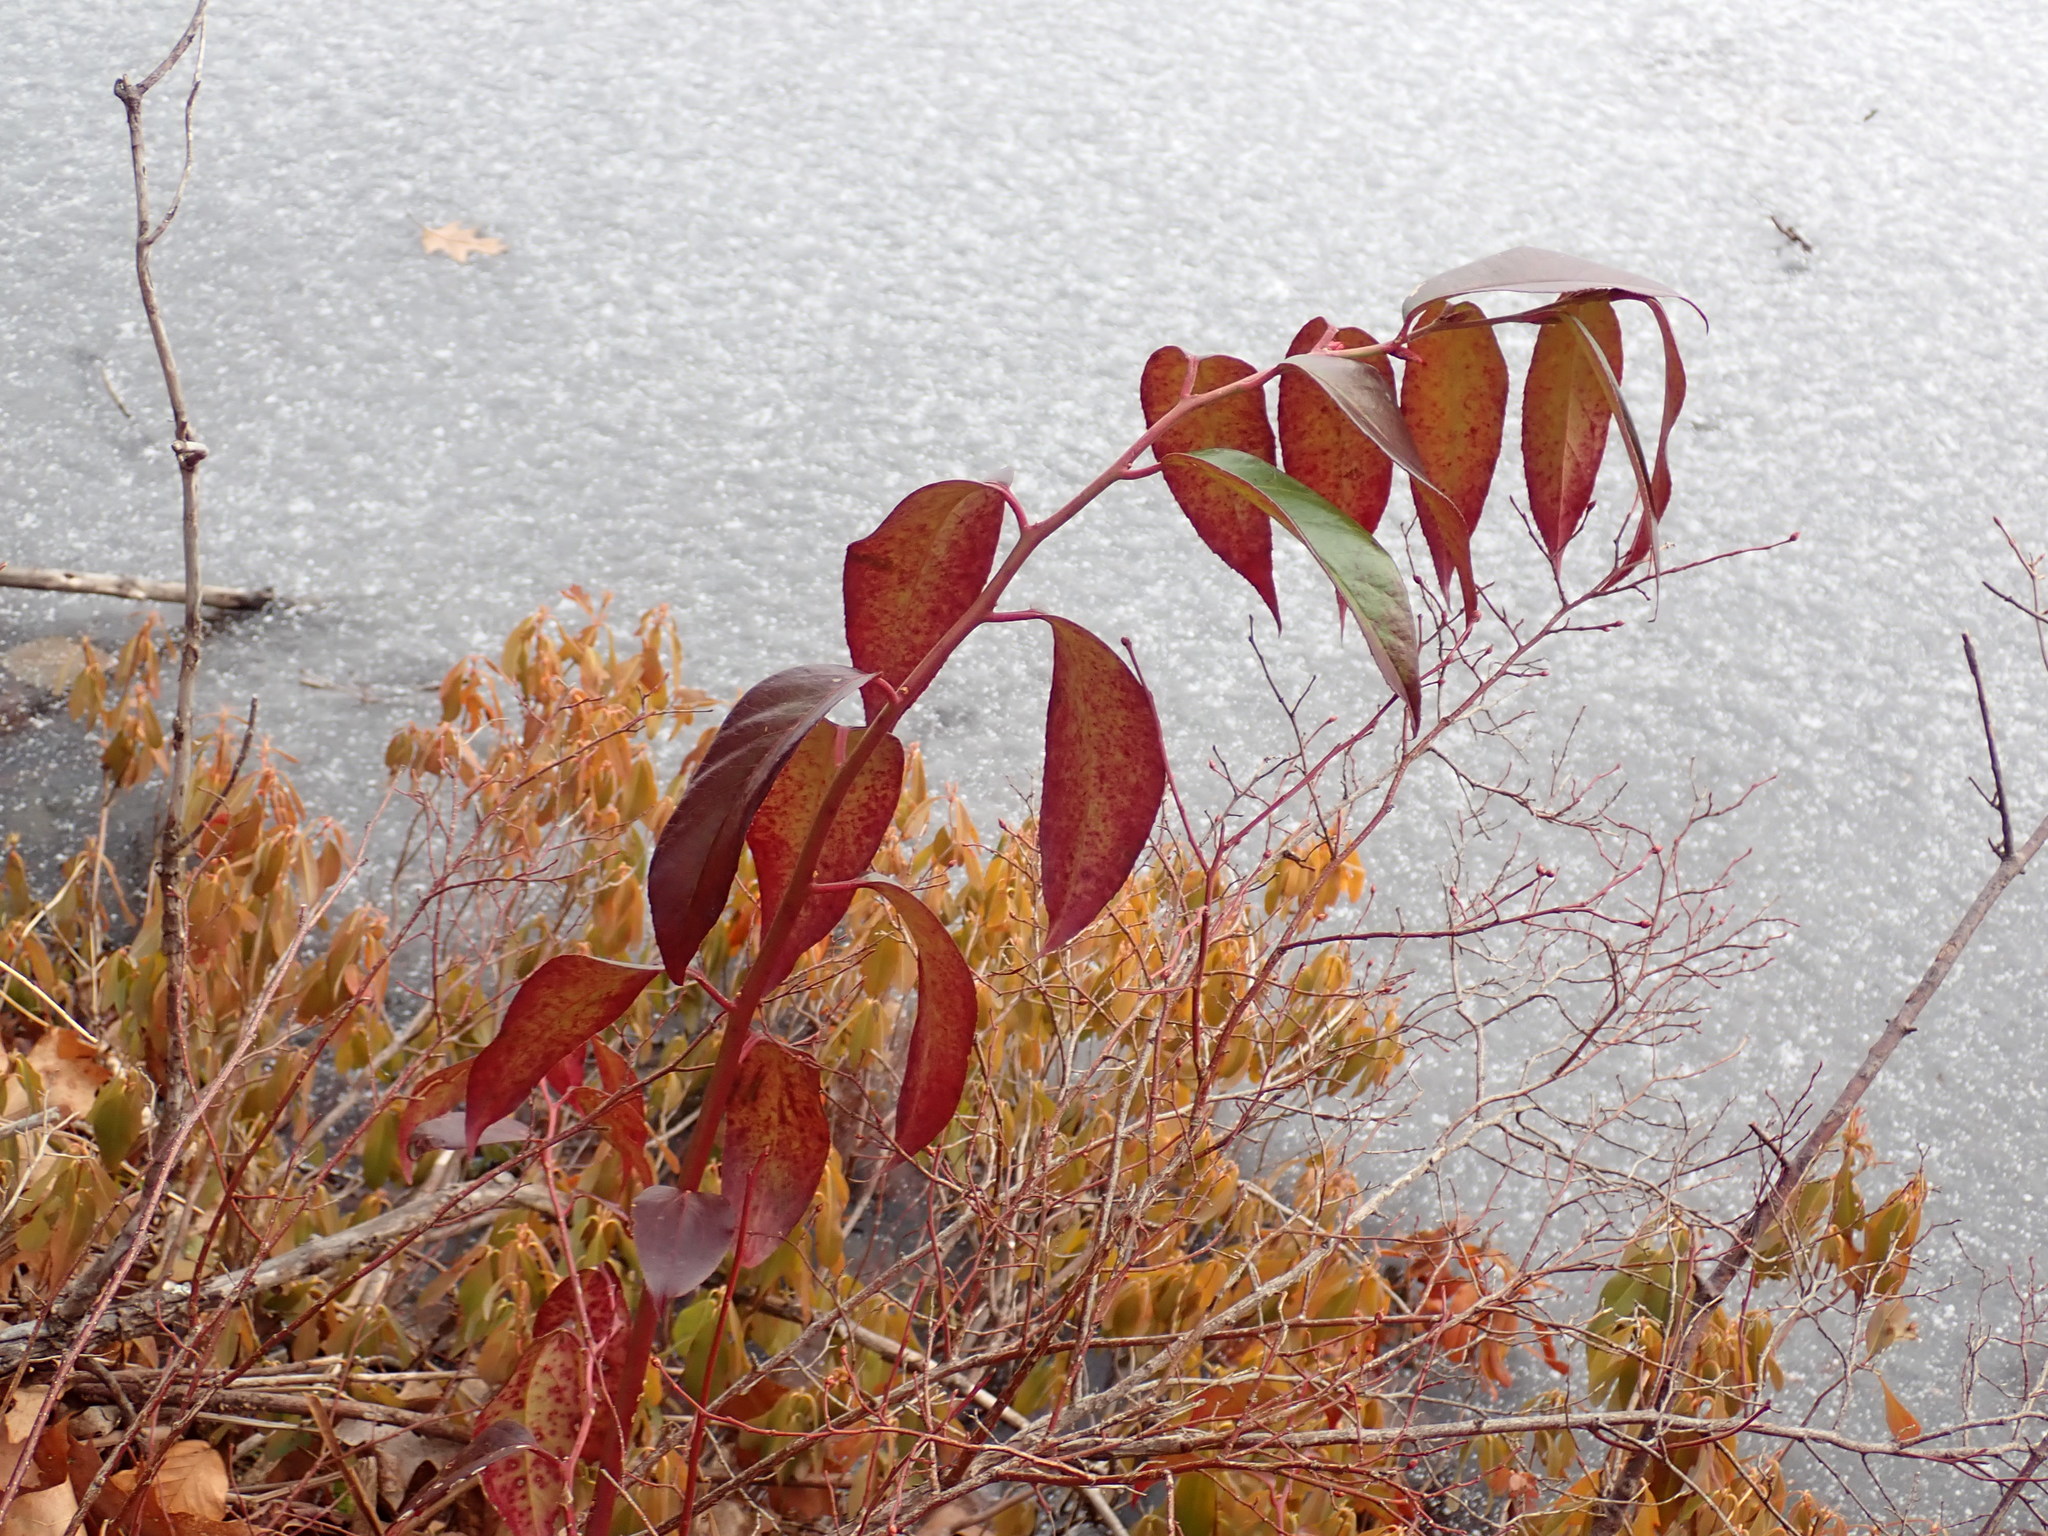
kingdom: Plantae
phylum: Tracheophyta
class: Magnoliopsida
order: Ericales
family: Ericaceae
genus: Leucothoe
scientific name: Leucothoe fontanesiana
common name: Fetterbush
